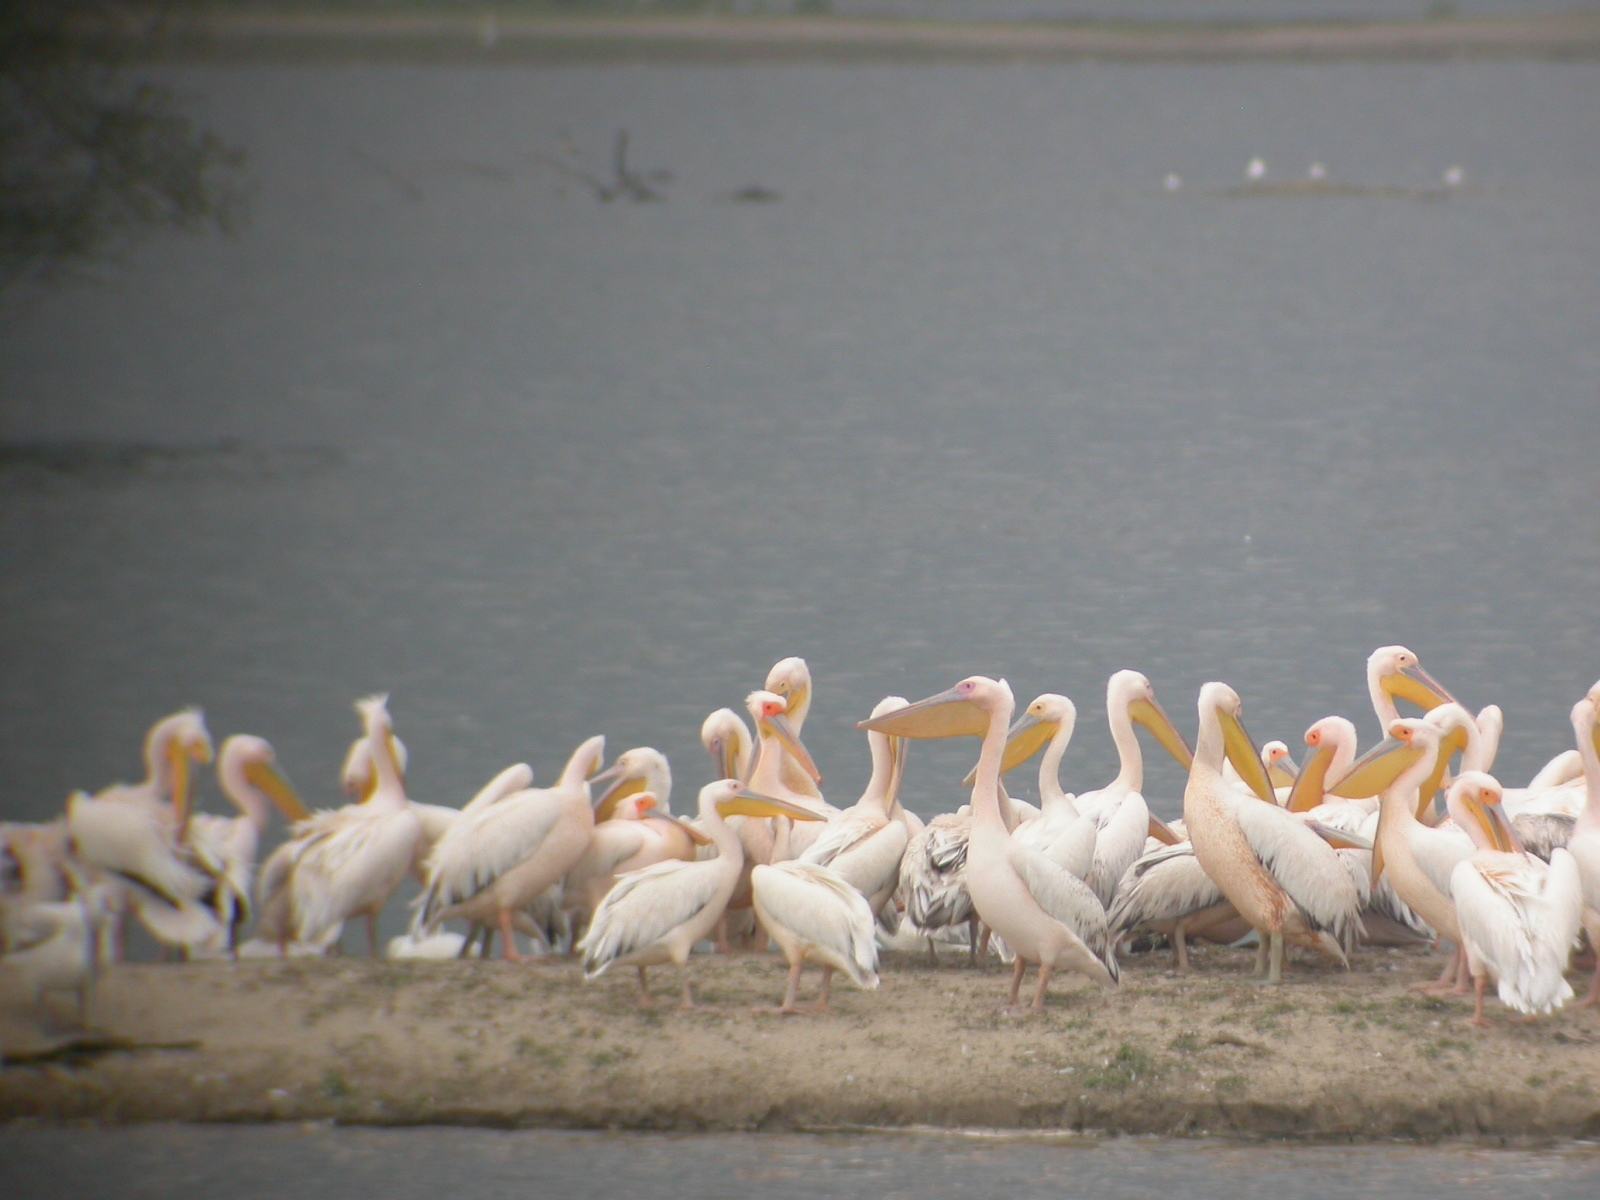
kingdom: Animalia
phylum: Chordata
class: Aves
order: Pelecaniformes
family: Pelecanidae
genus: Pelecanus
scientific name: Pelecanus onocrotalus
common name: Great white pelican
